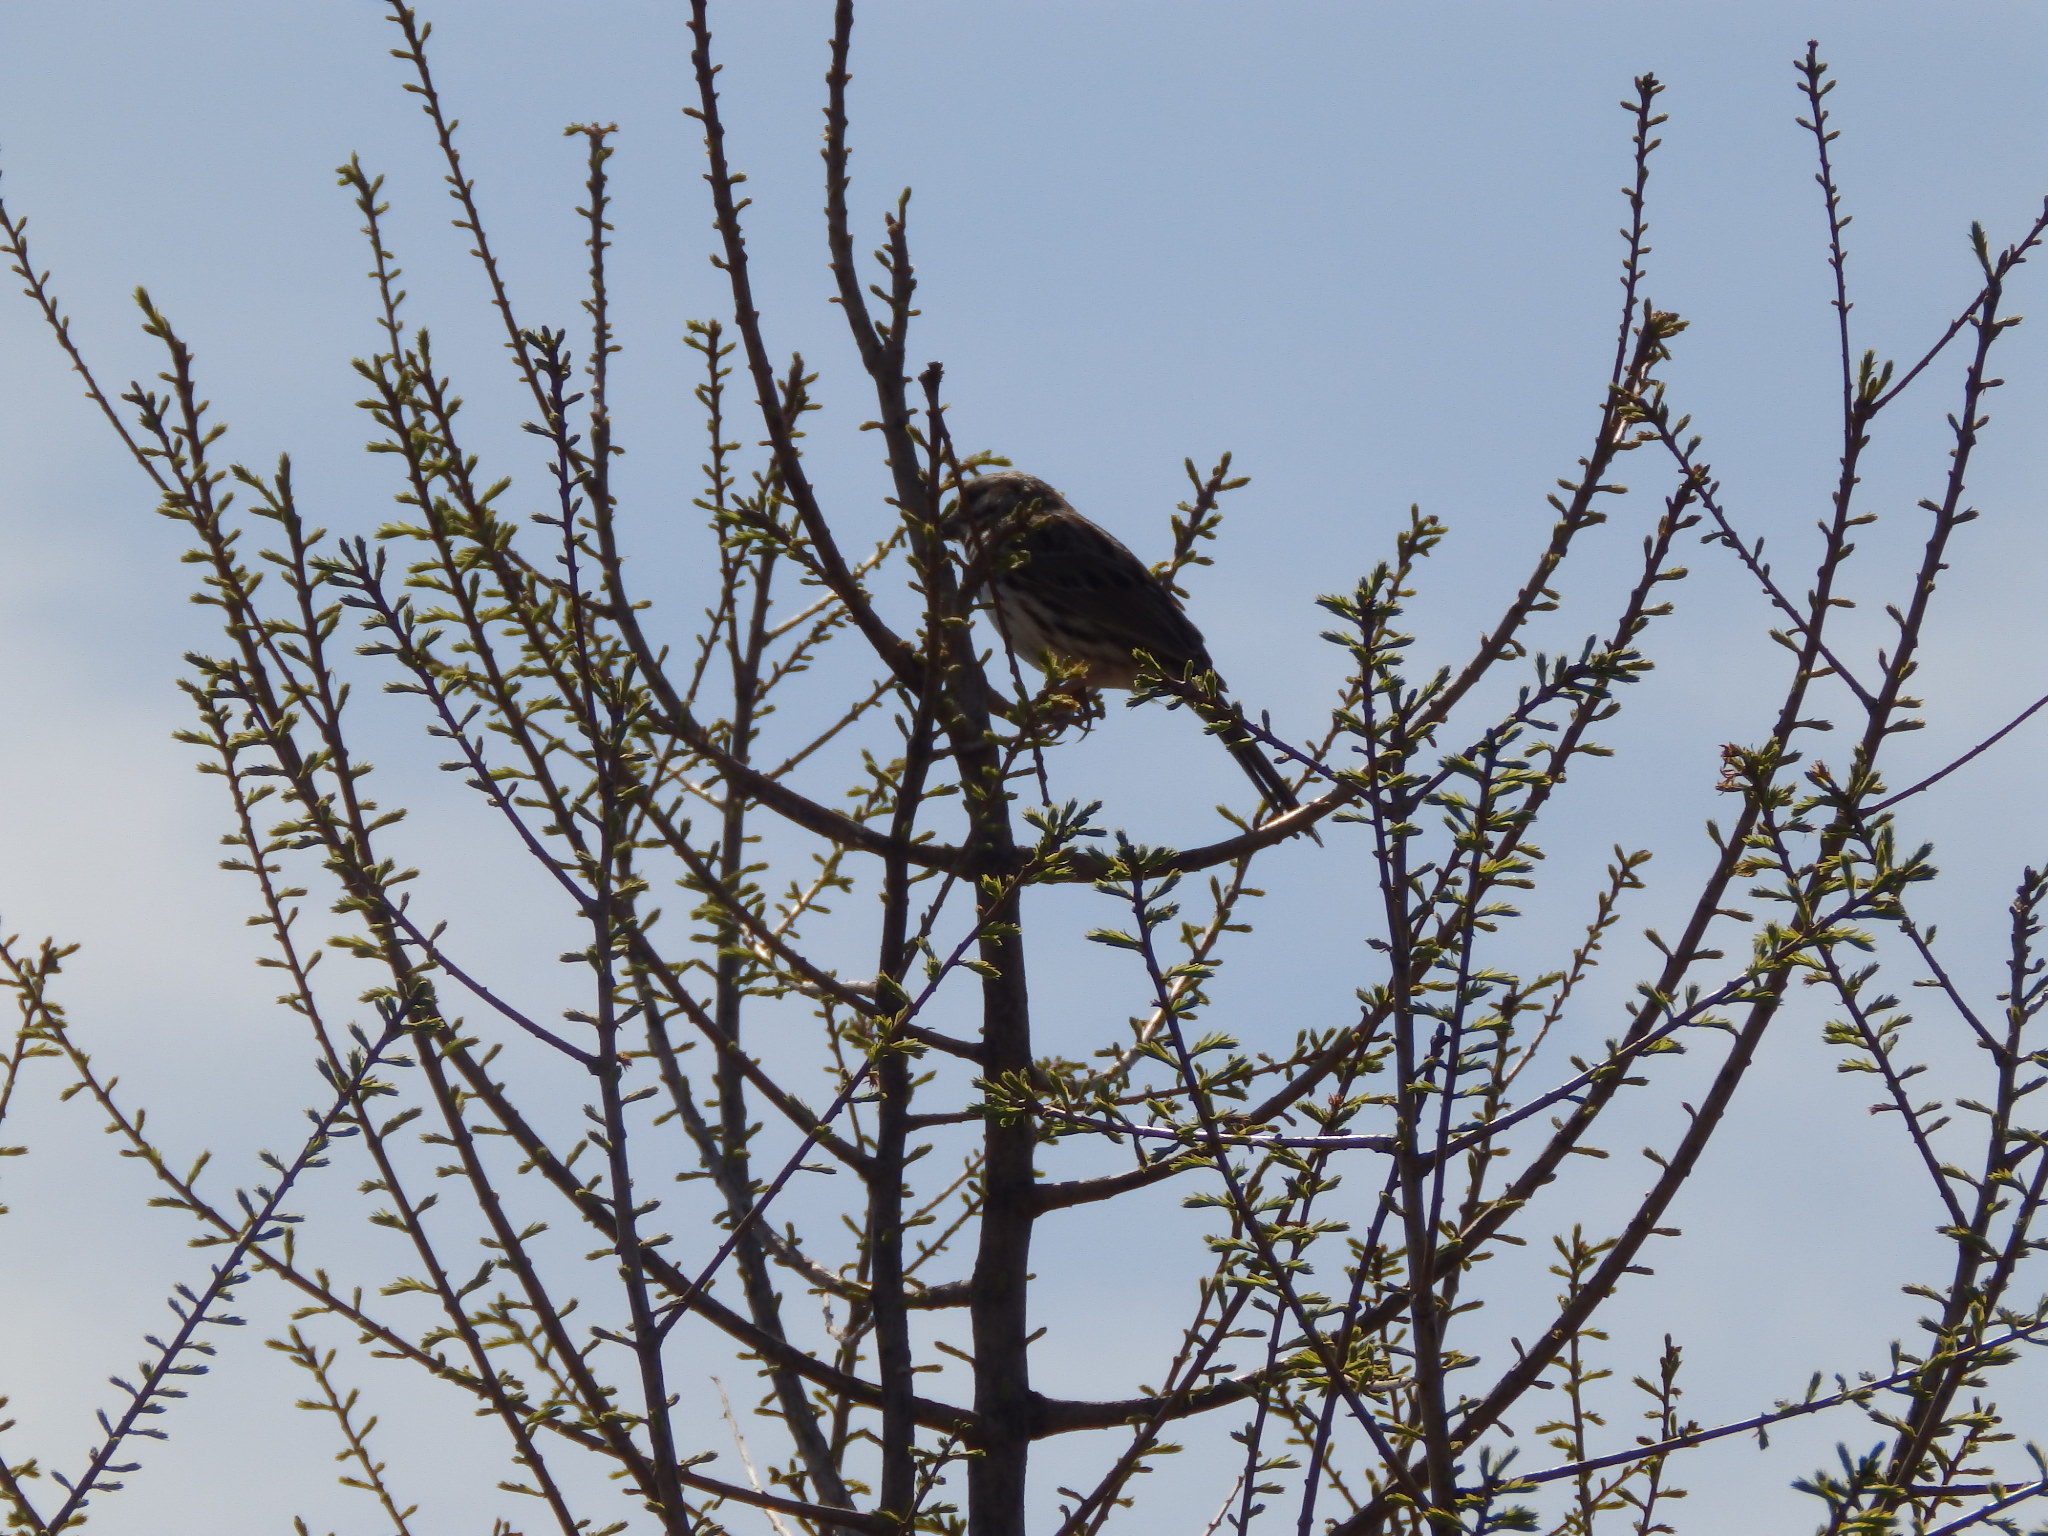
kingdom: Animalia
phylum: Chordata
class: Aves
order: Passeriformes
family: Passerellidae
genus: Melospiza
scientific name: Melospiza melodia
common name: Song sparrow
